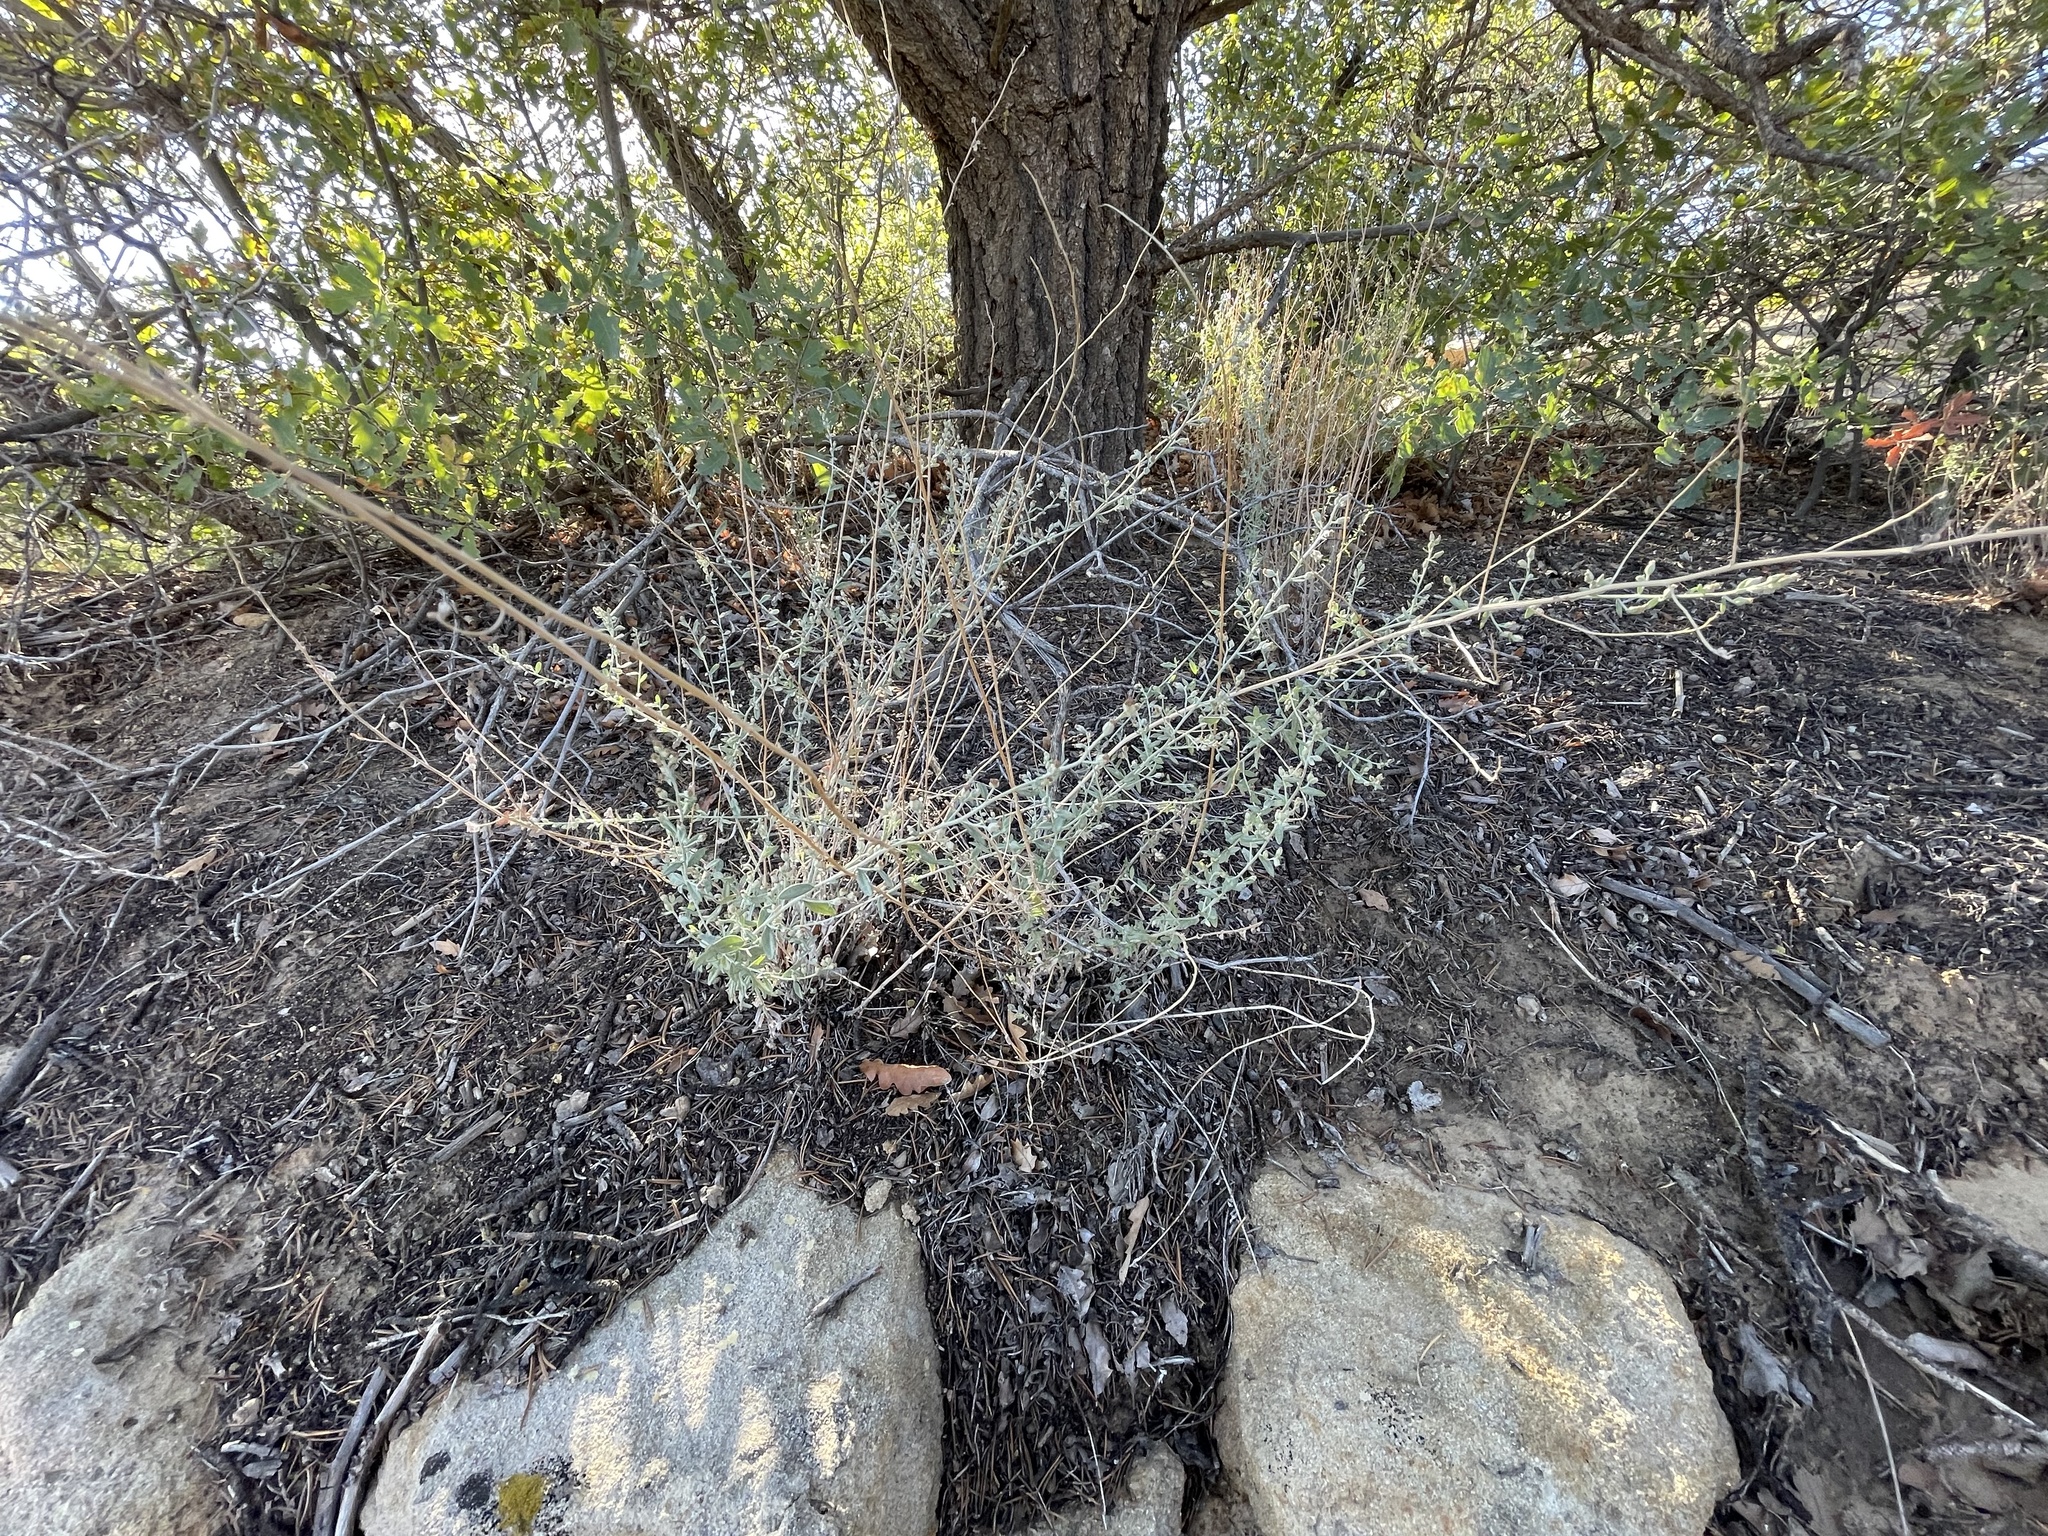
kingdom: Plantae
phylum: Tracheophyta
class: Magnoliopsida
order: Asterales
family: Asteraceae
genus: Artemisia
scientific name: Artemisia ludoviciana
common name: Western mugwort
